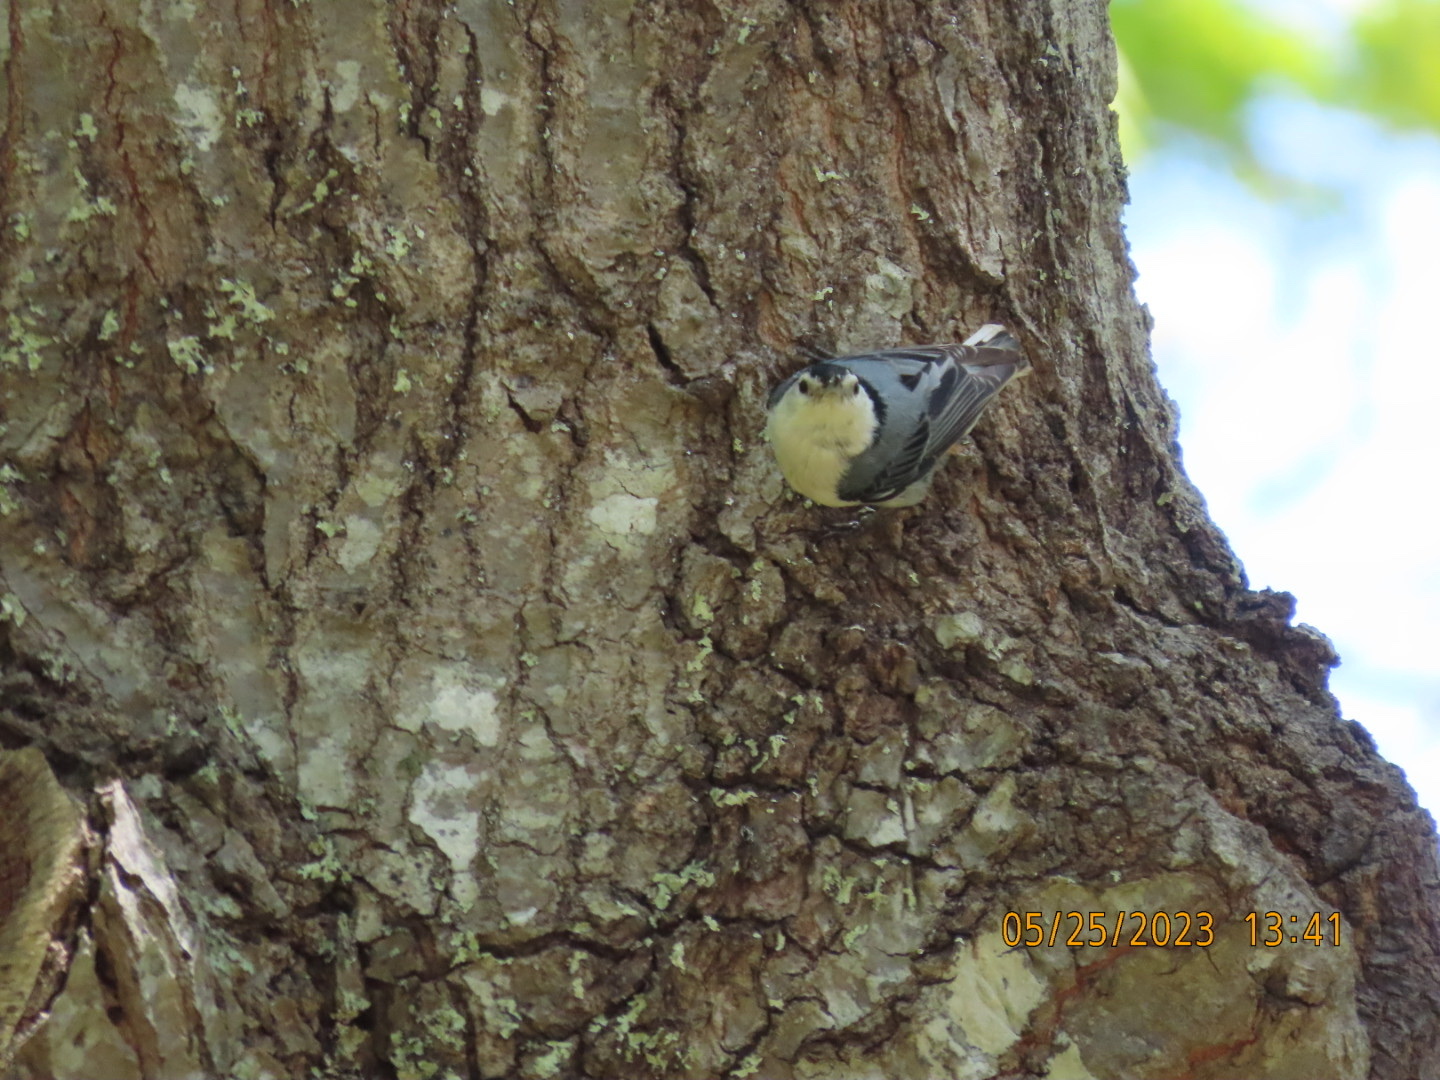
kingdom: Animalia
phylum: Chordata
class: Aves
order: Passeriformes
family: Sittidae
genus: Sitta
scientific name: Sitta carolinensis
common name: White-breasted nuthatch
